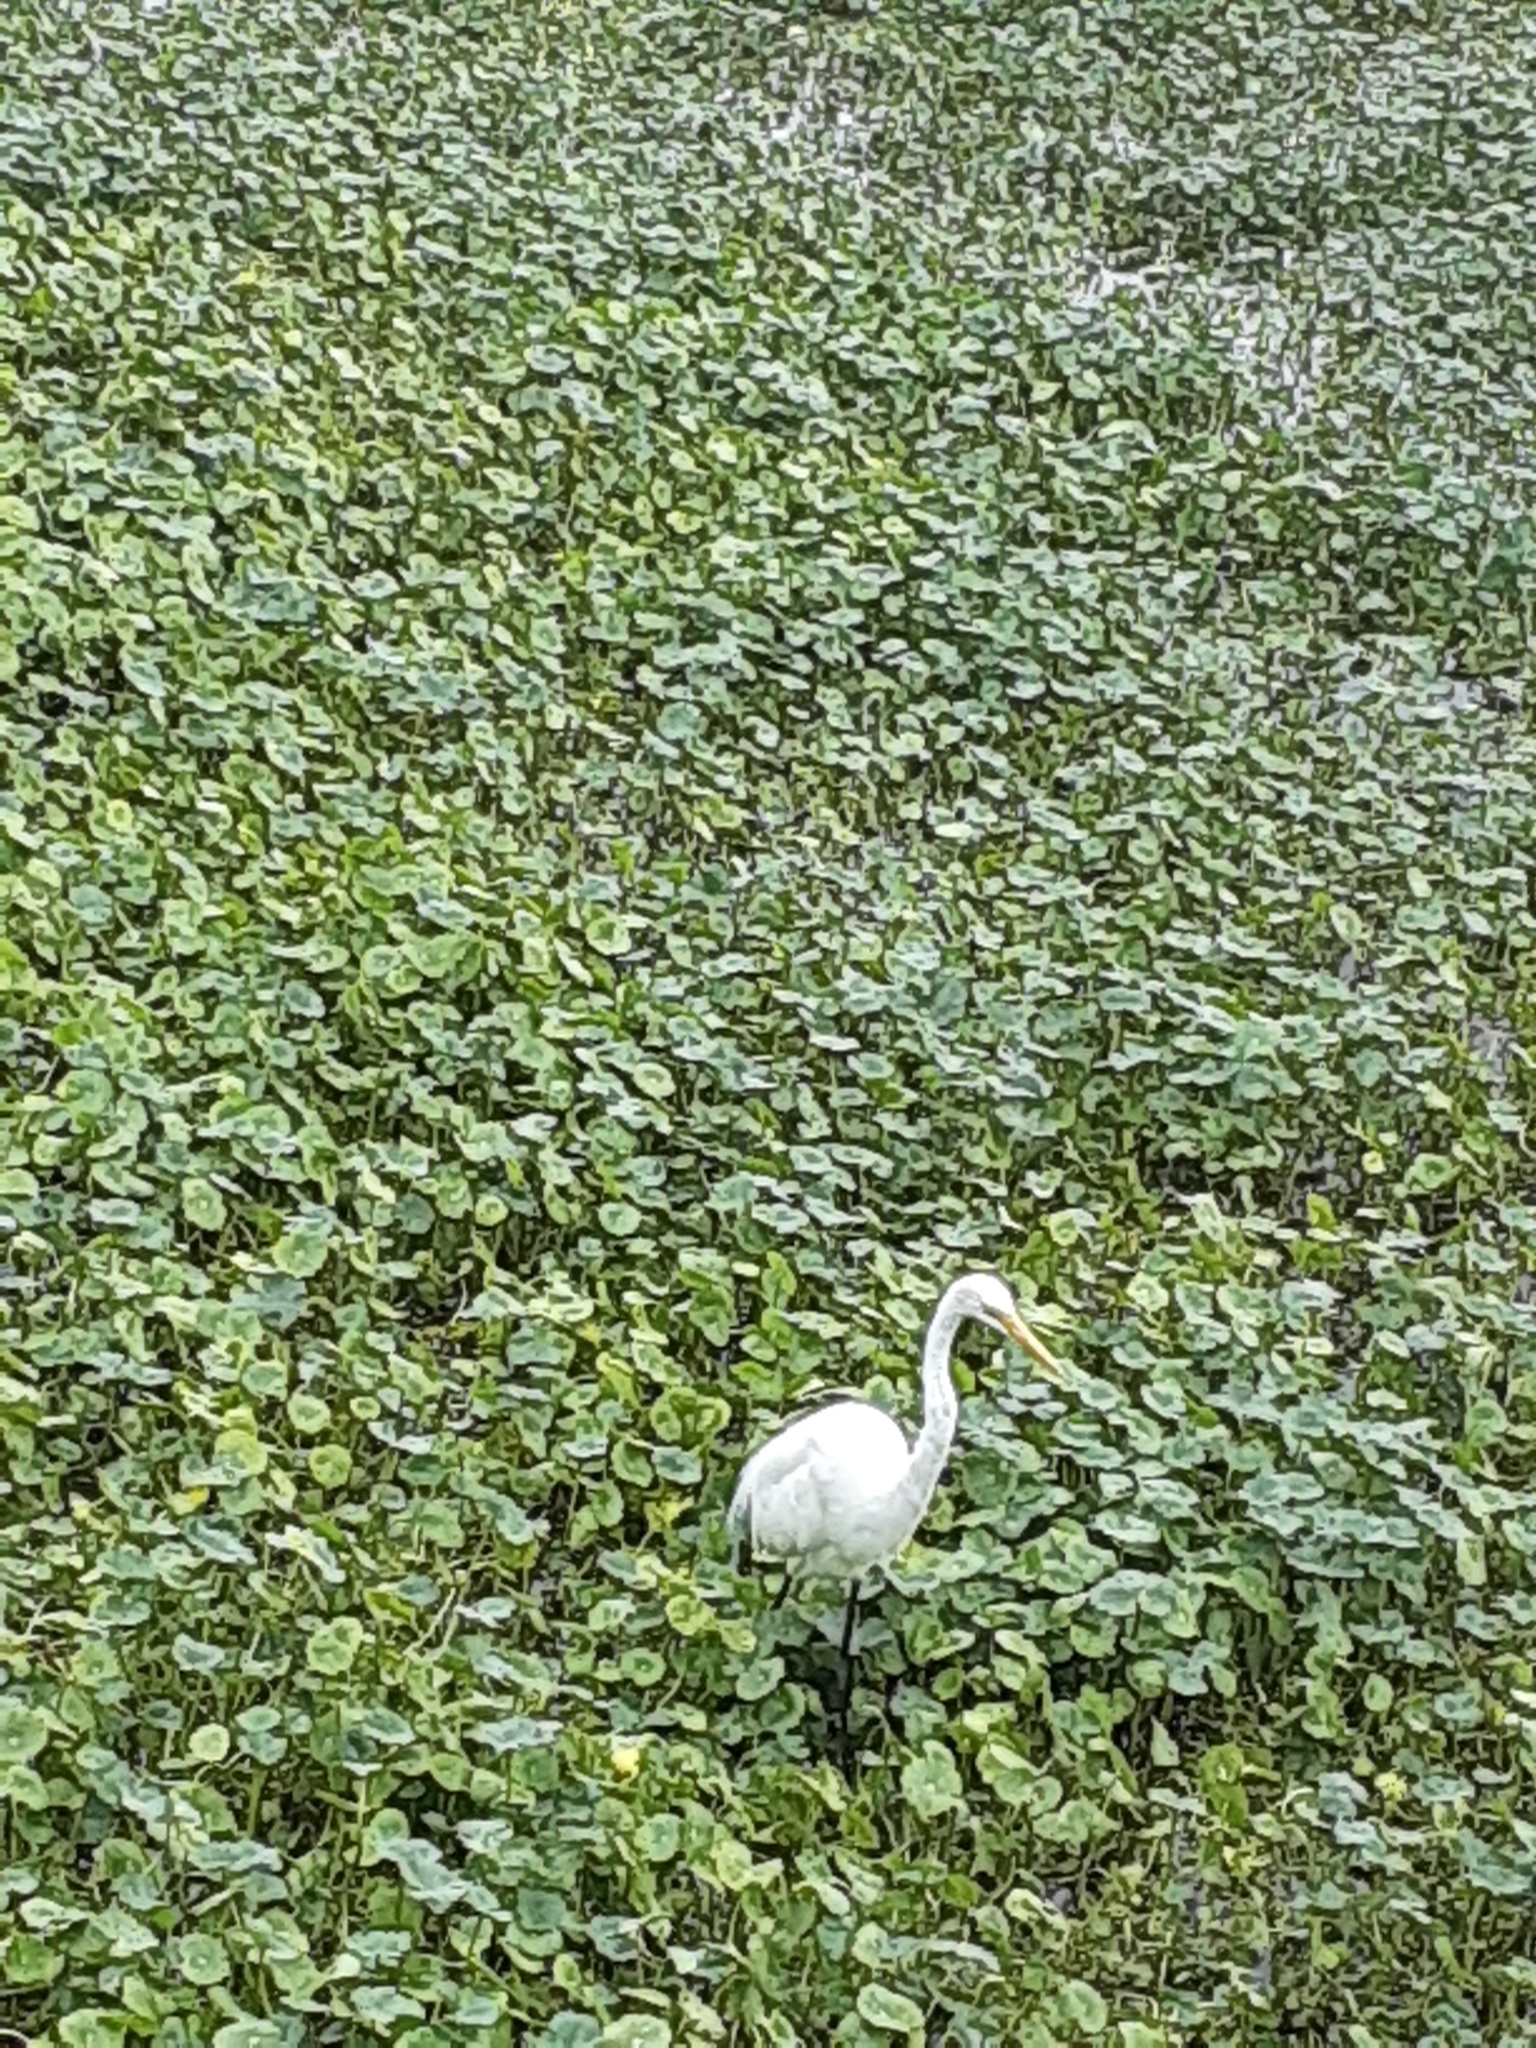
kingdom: Animalia
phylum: Chordata
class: Aves
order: Pelecaniformes
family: Ardeidae
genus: Ardea
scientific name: Ardea alba
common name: Great egret
